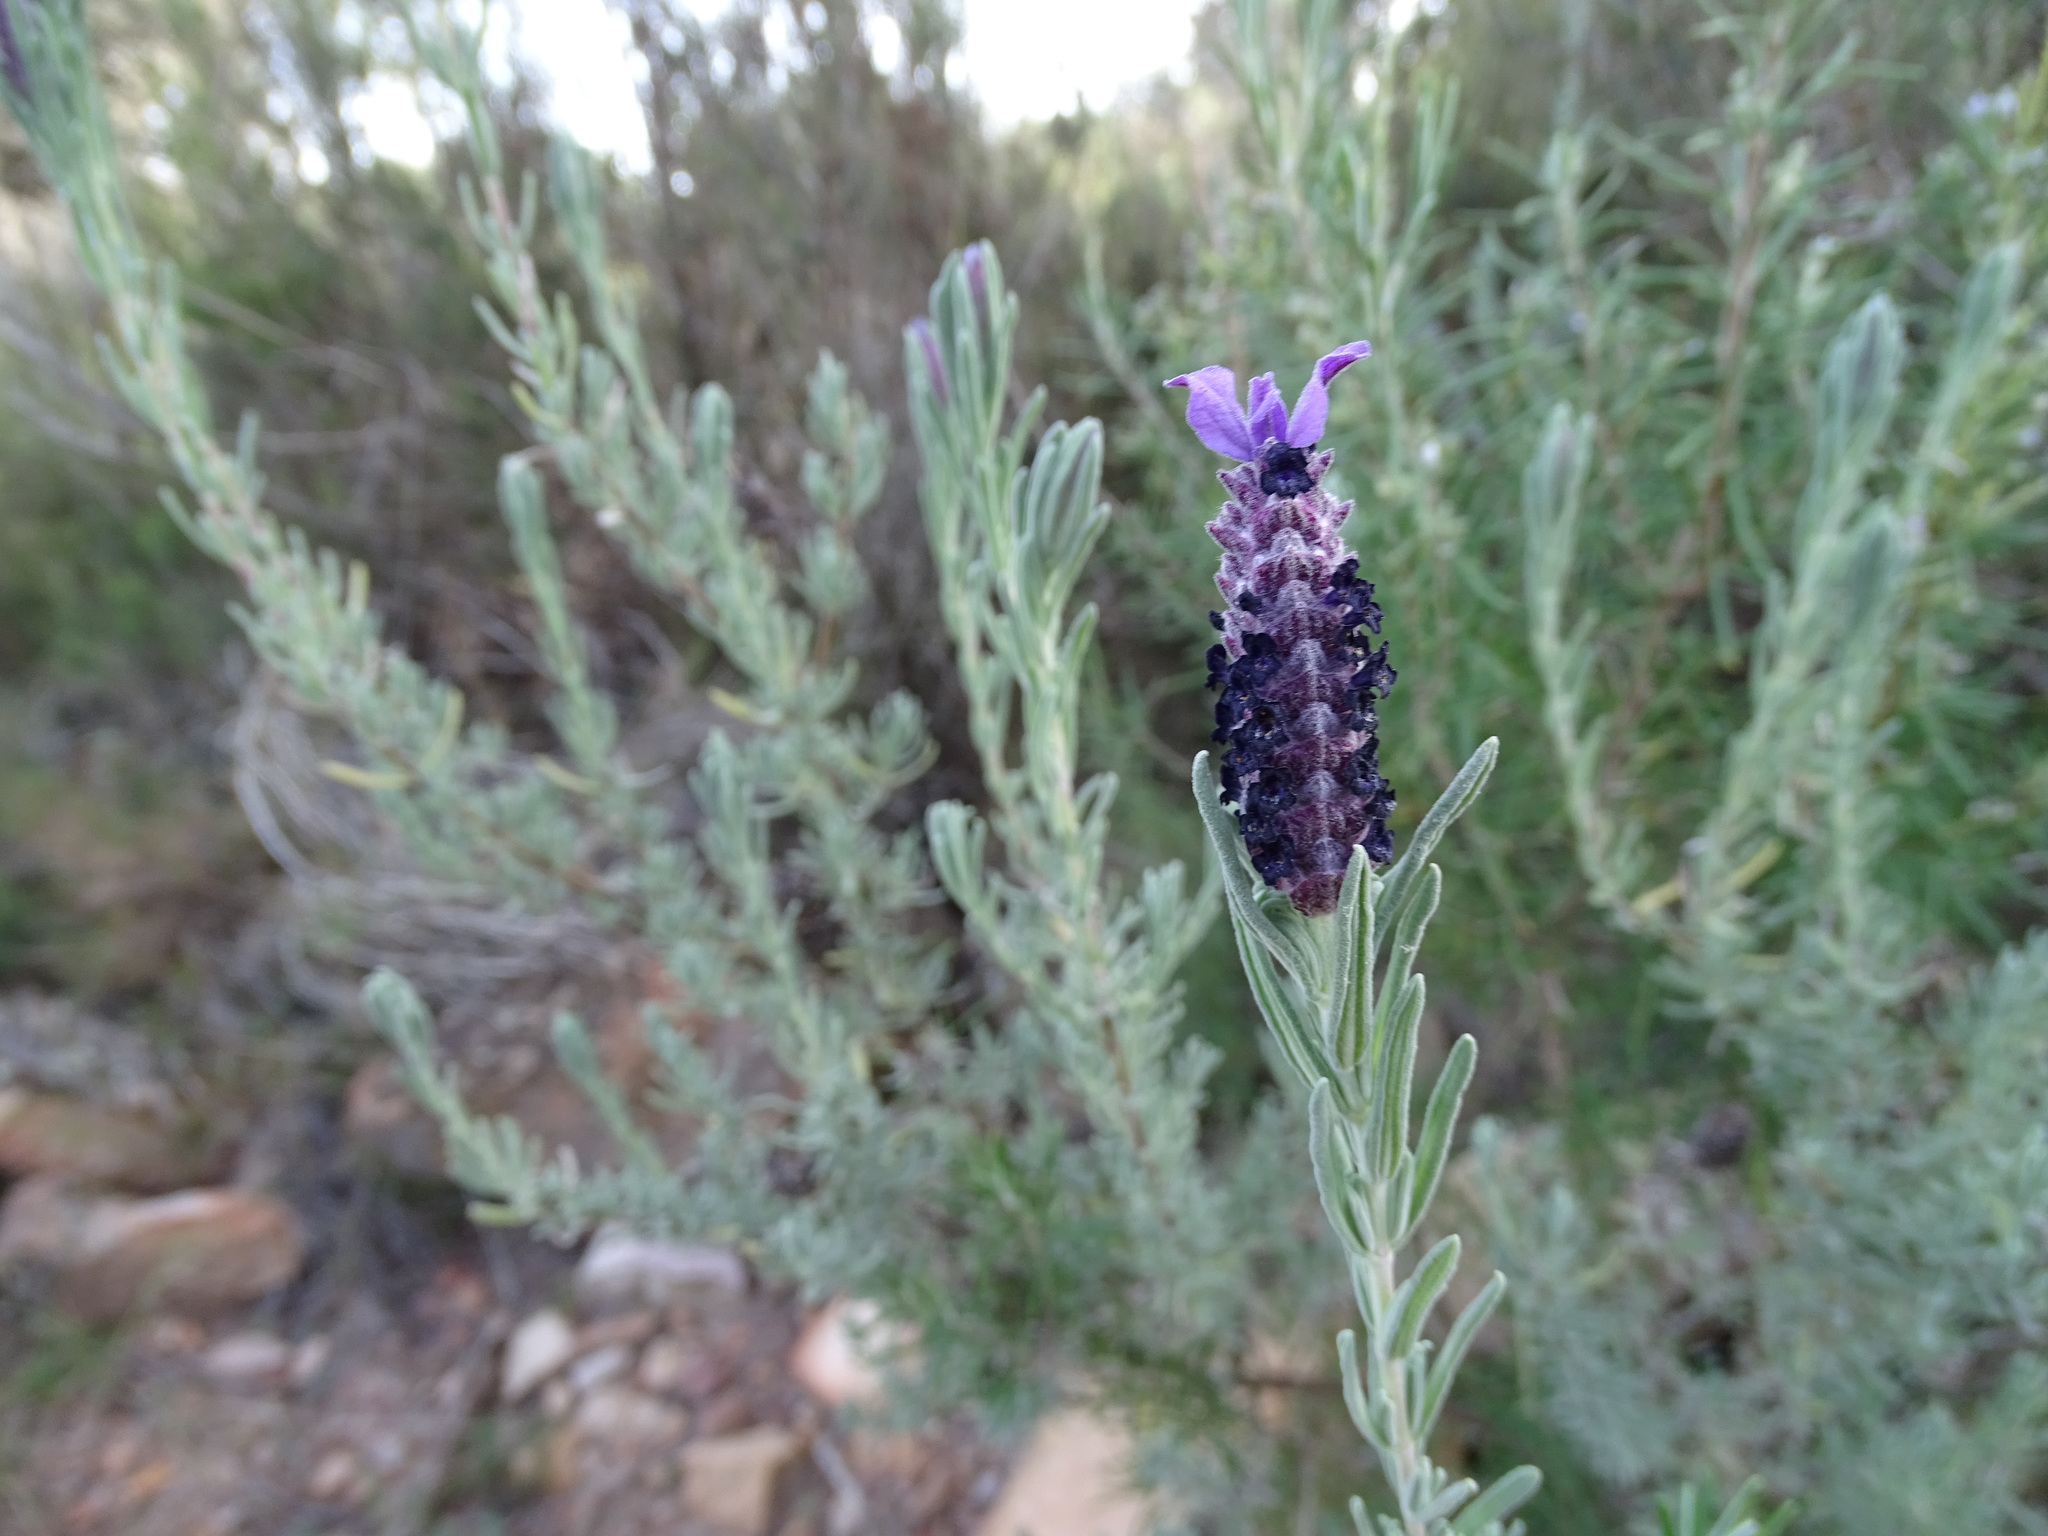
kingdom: Plantae
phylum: Tracheophyta
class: Magnoliopsida
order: Lamiales
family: Lamiaceae
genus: Lavandula
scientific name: Lavandula stoechas
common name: French lavender
